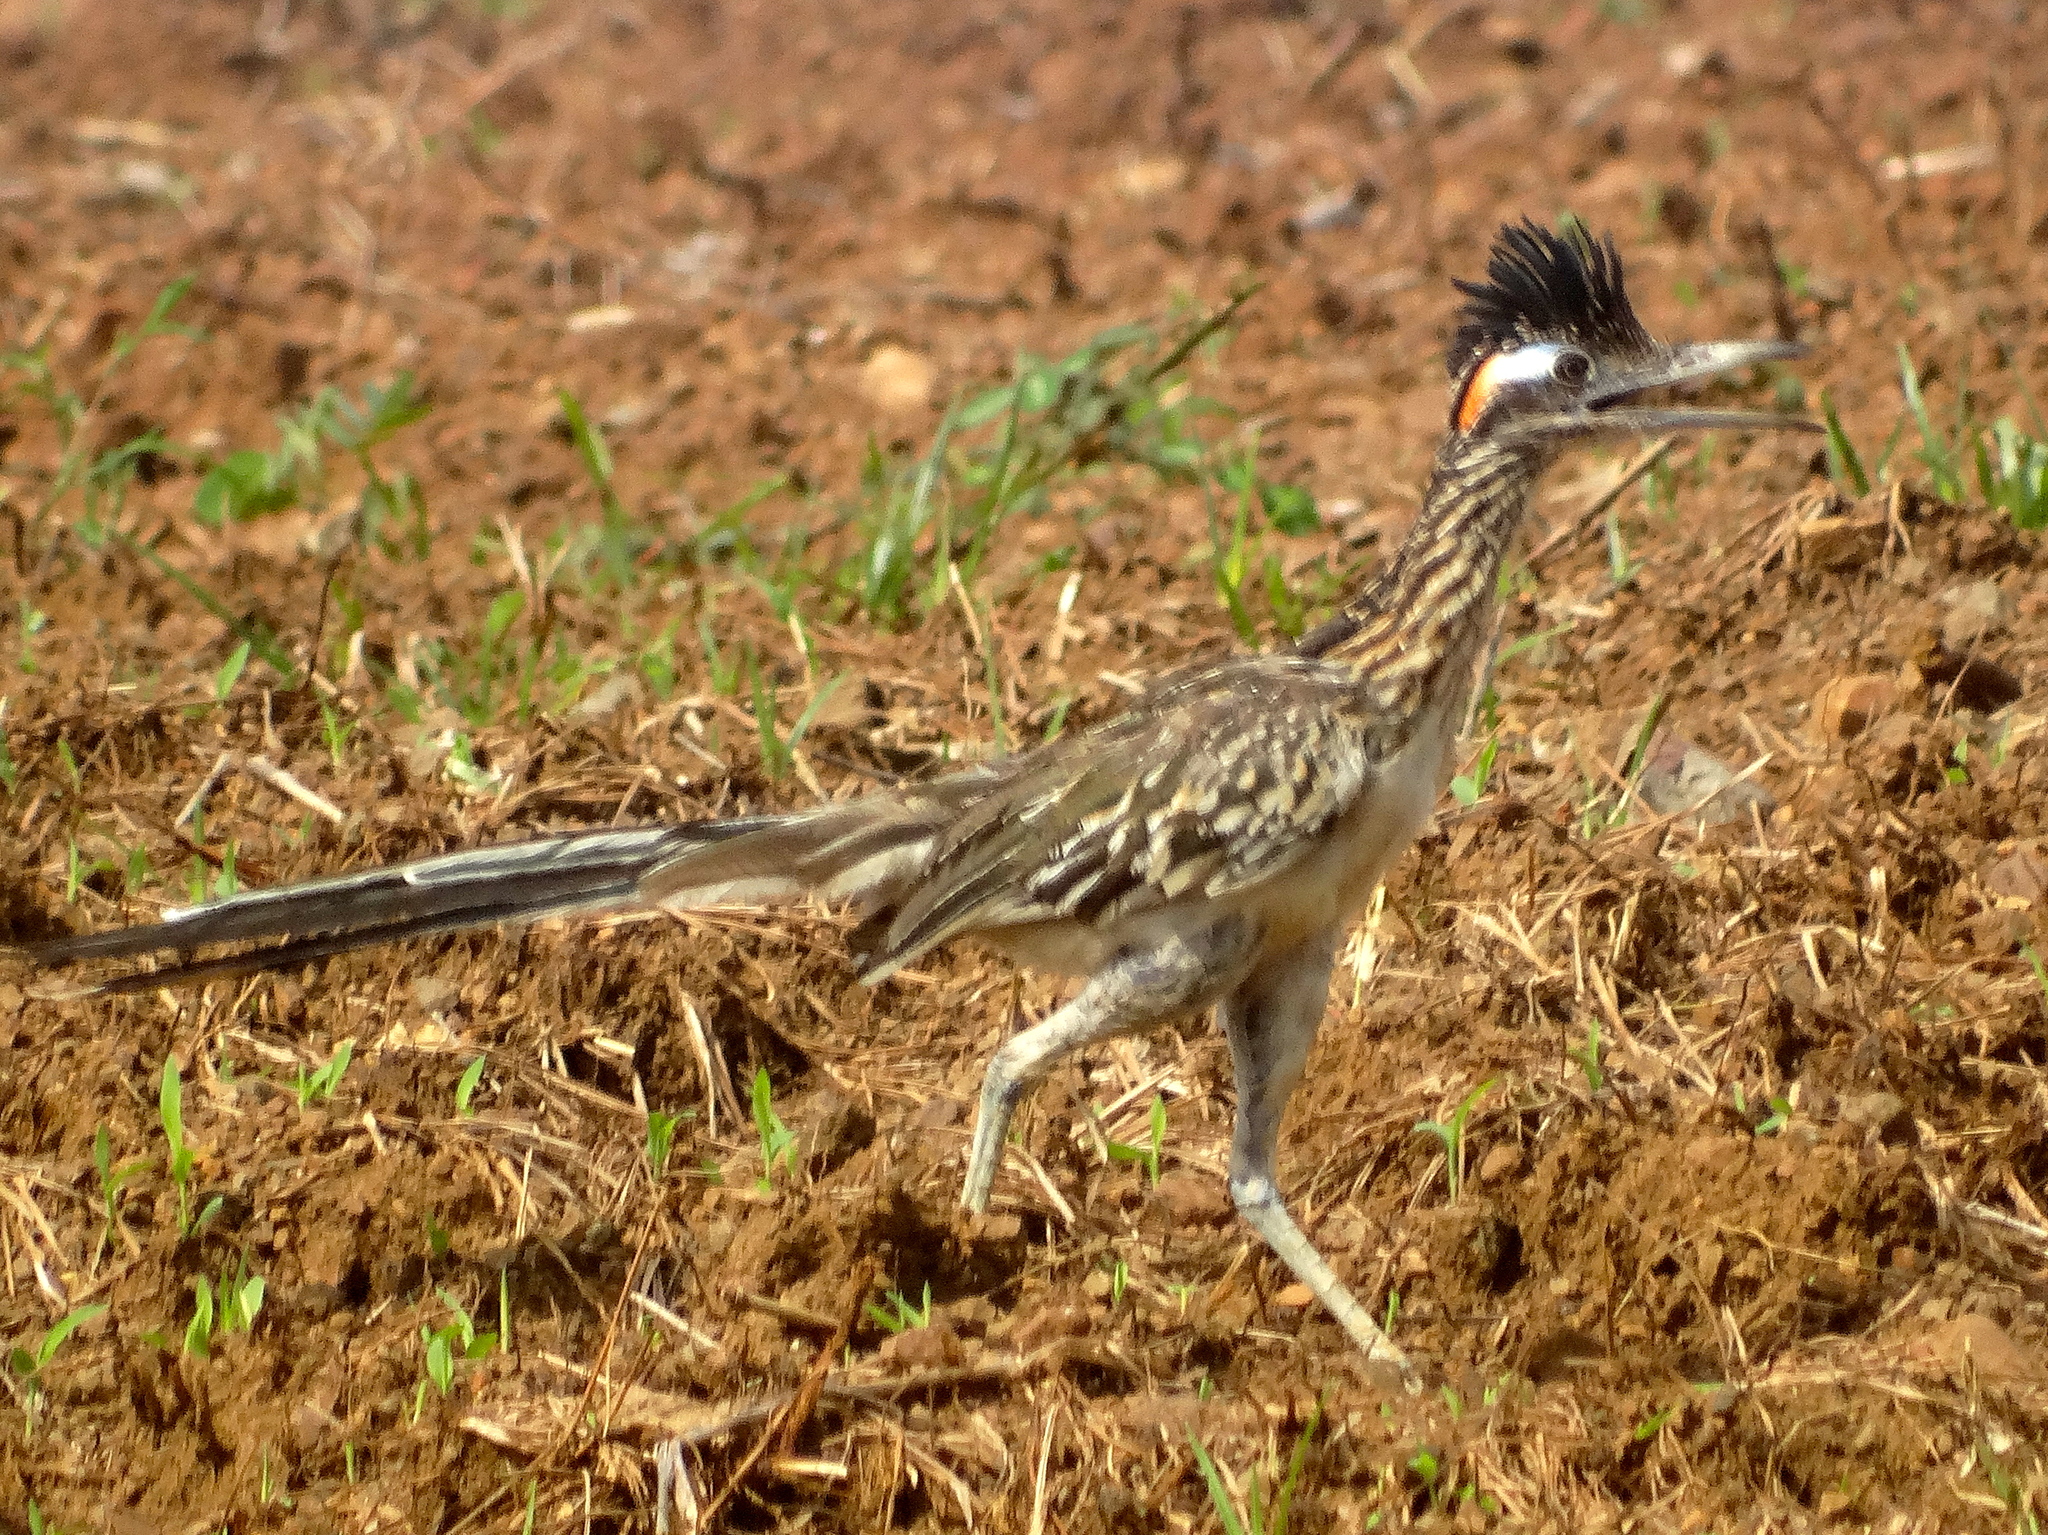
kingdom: Animalia
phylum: Chordata
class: Aves
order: Cuculiformes
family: Cuculidae
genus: Geococcyx
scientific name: Geococcyx californianus
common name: Greater roadrunner
